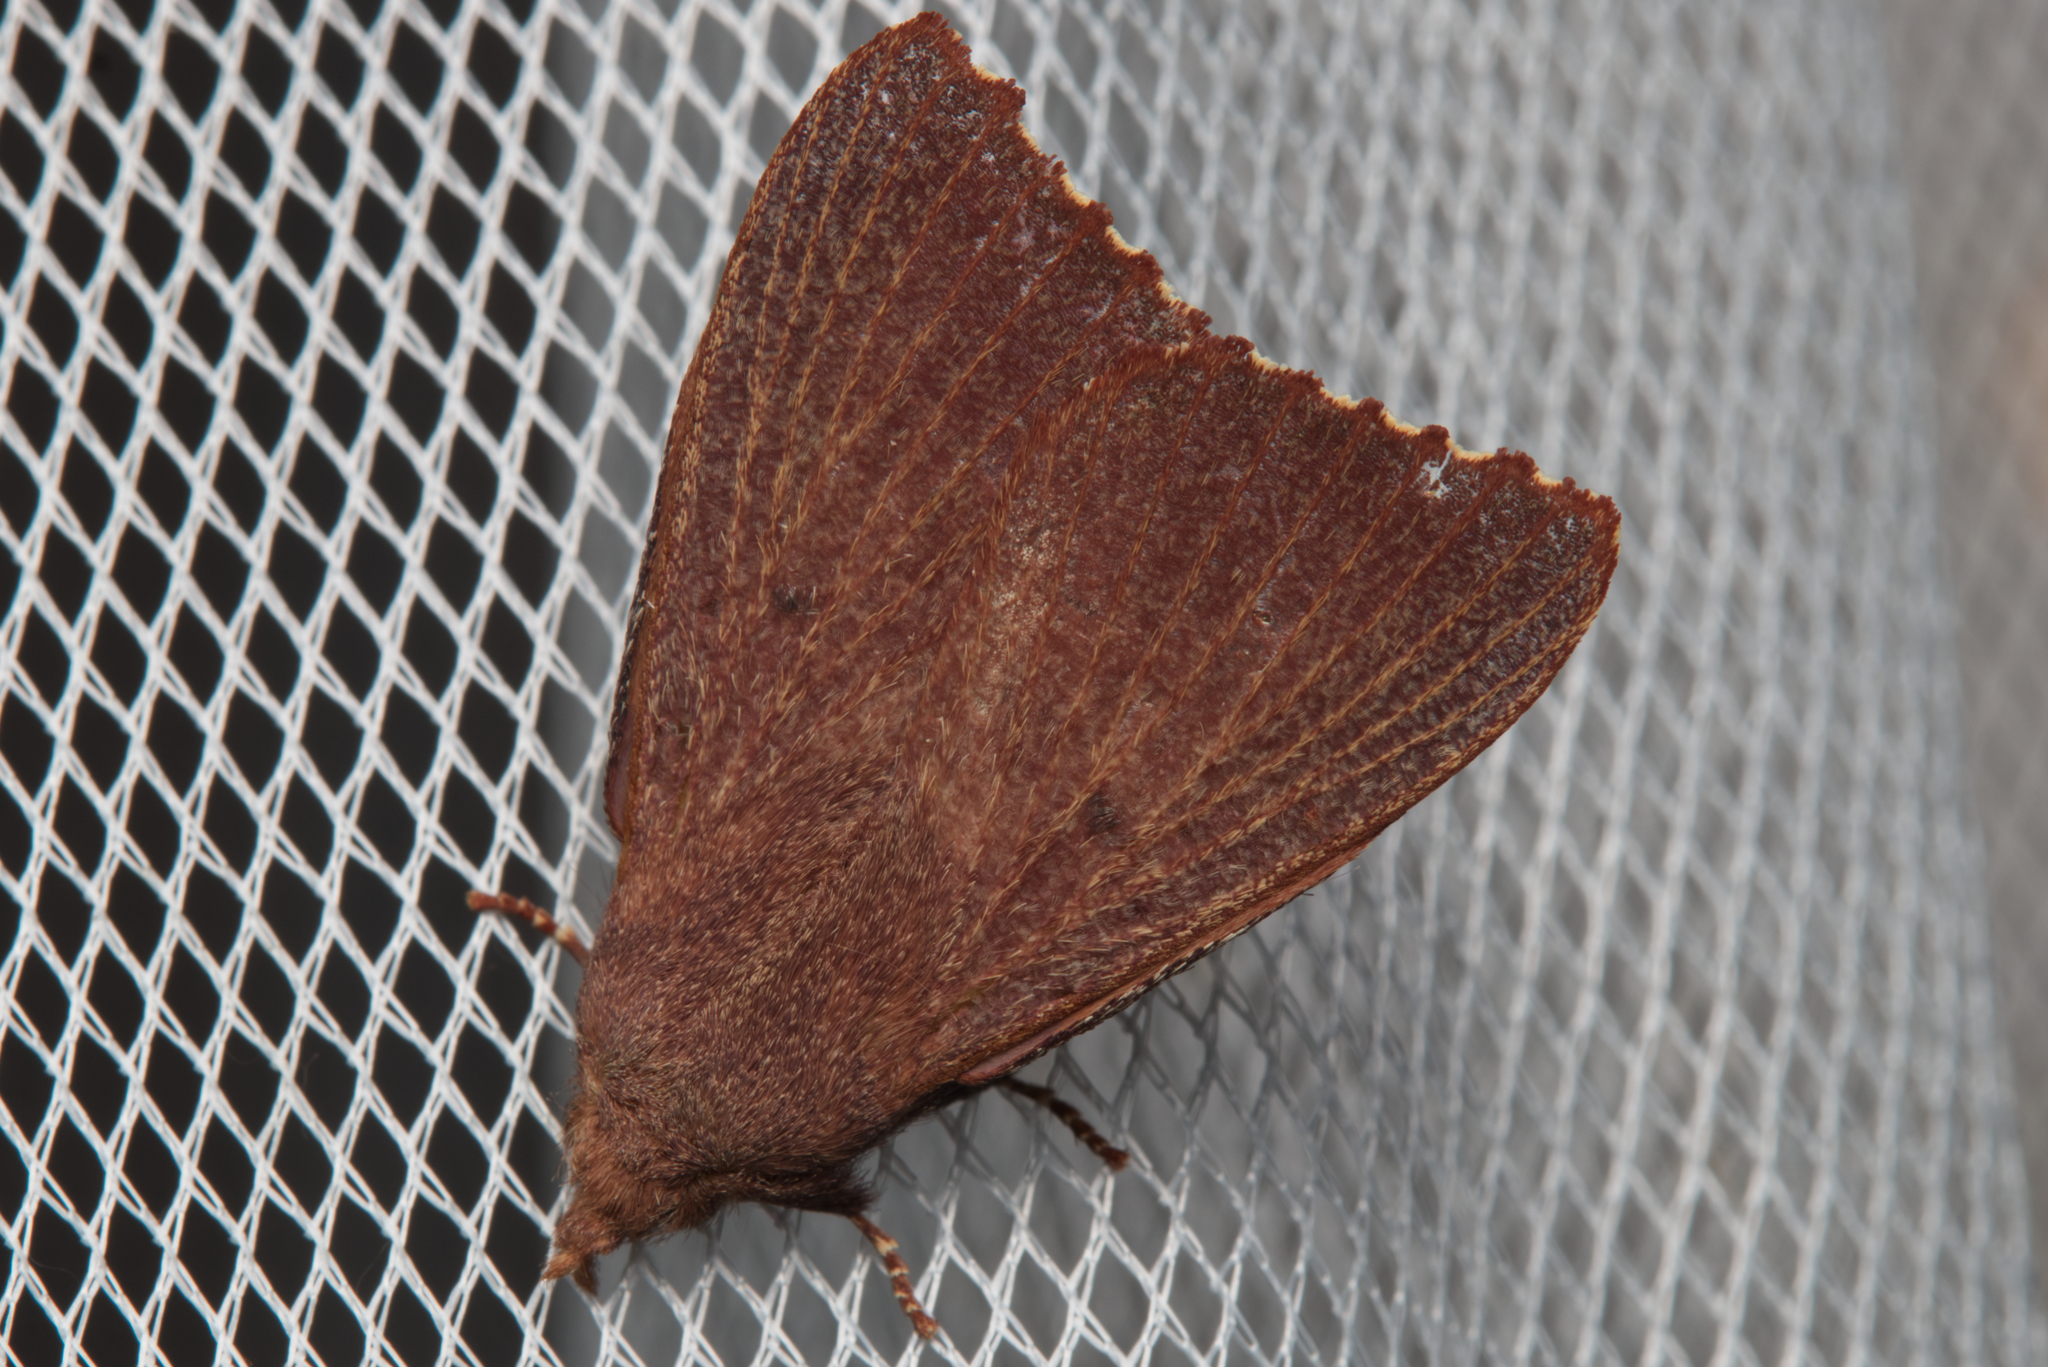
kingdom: Animalia
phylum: Arthropoda
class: Insecta
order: Lepidoptera
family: Lasiocampidae
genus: Pararguda
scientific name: Pararguda crenulata
